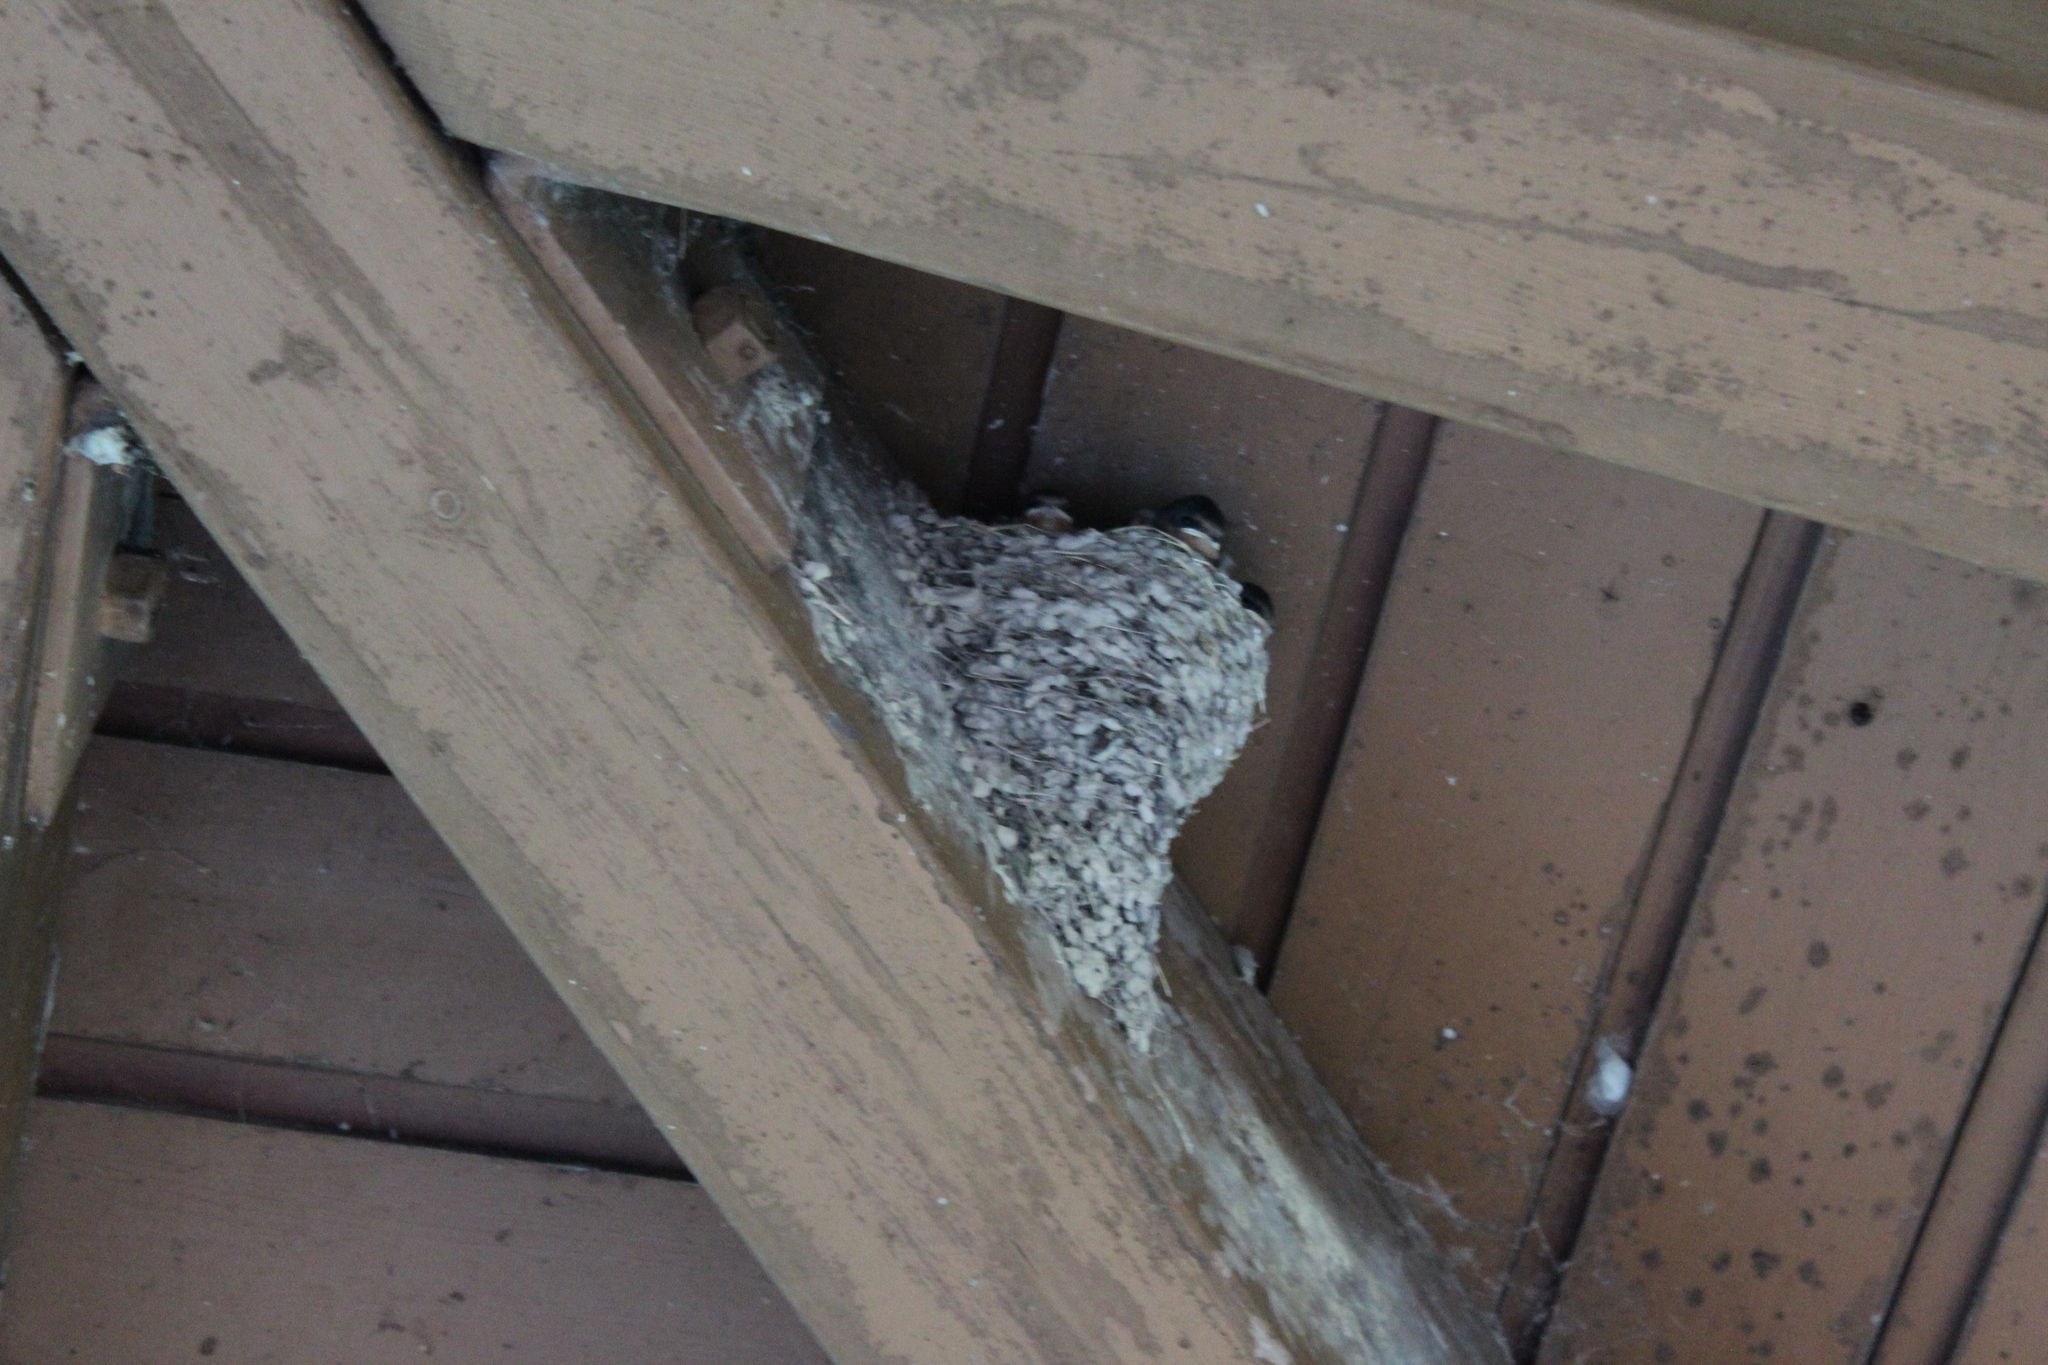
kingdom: Animalia
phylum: Chordata
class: Aves
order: Passeriformes
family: Hirundinidae
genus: Hirundo
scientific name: Hirundo rustica
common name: Barn swallow
